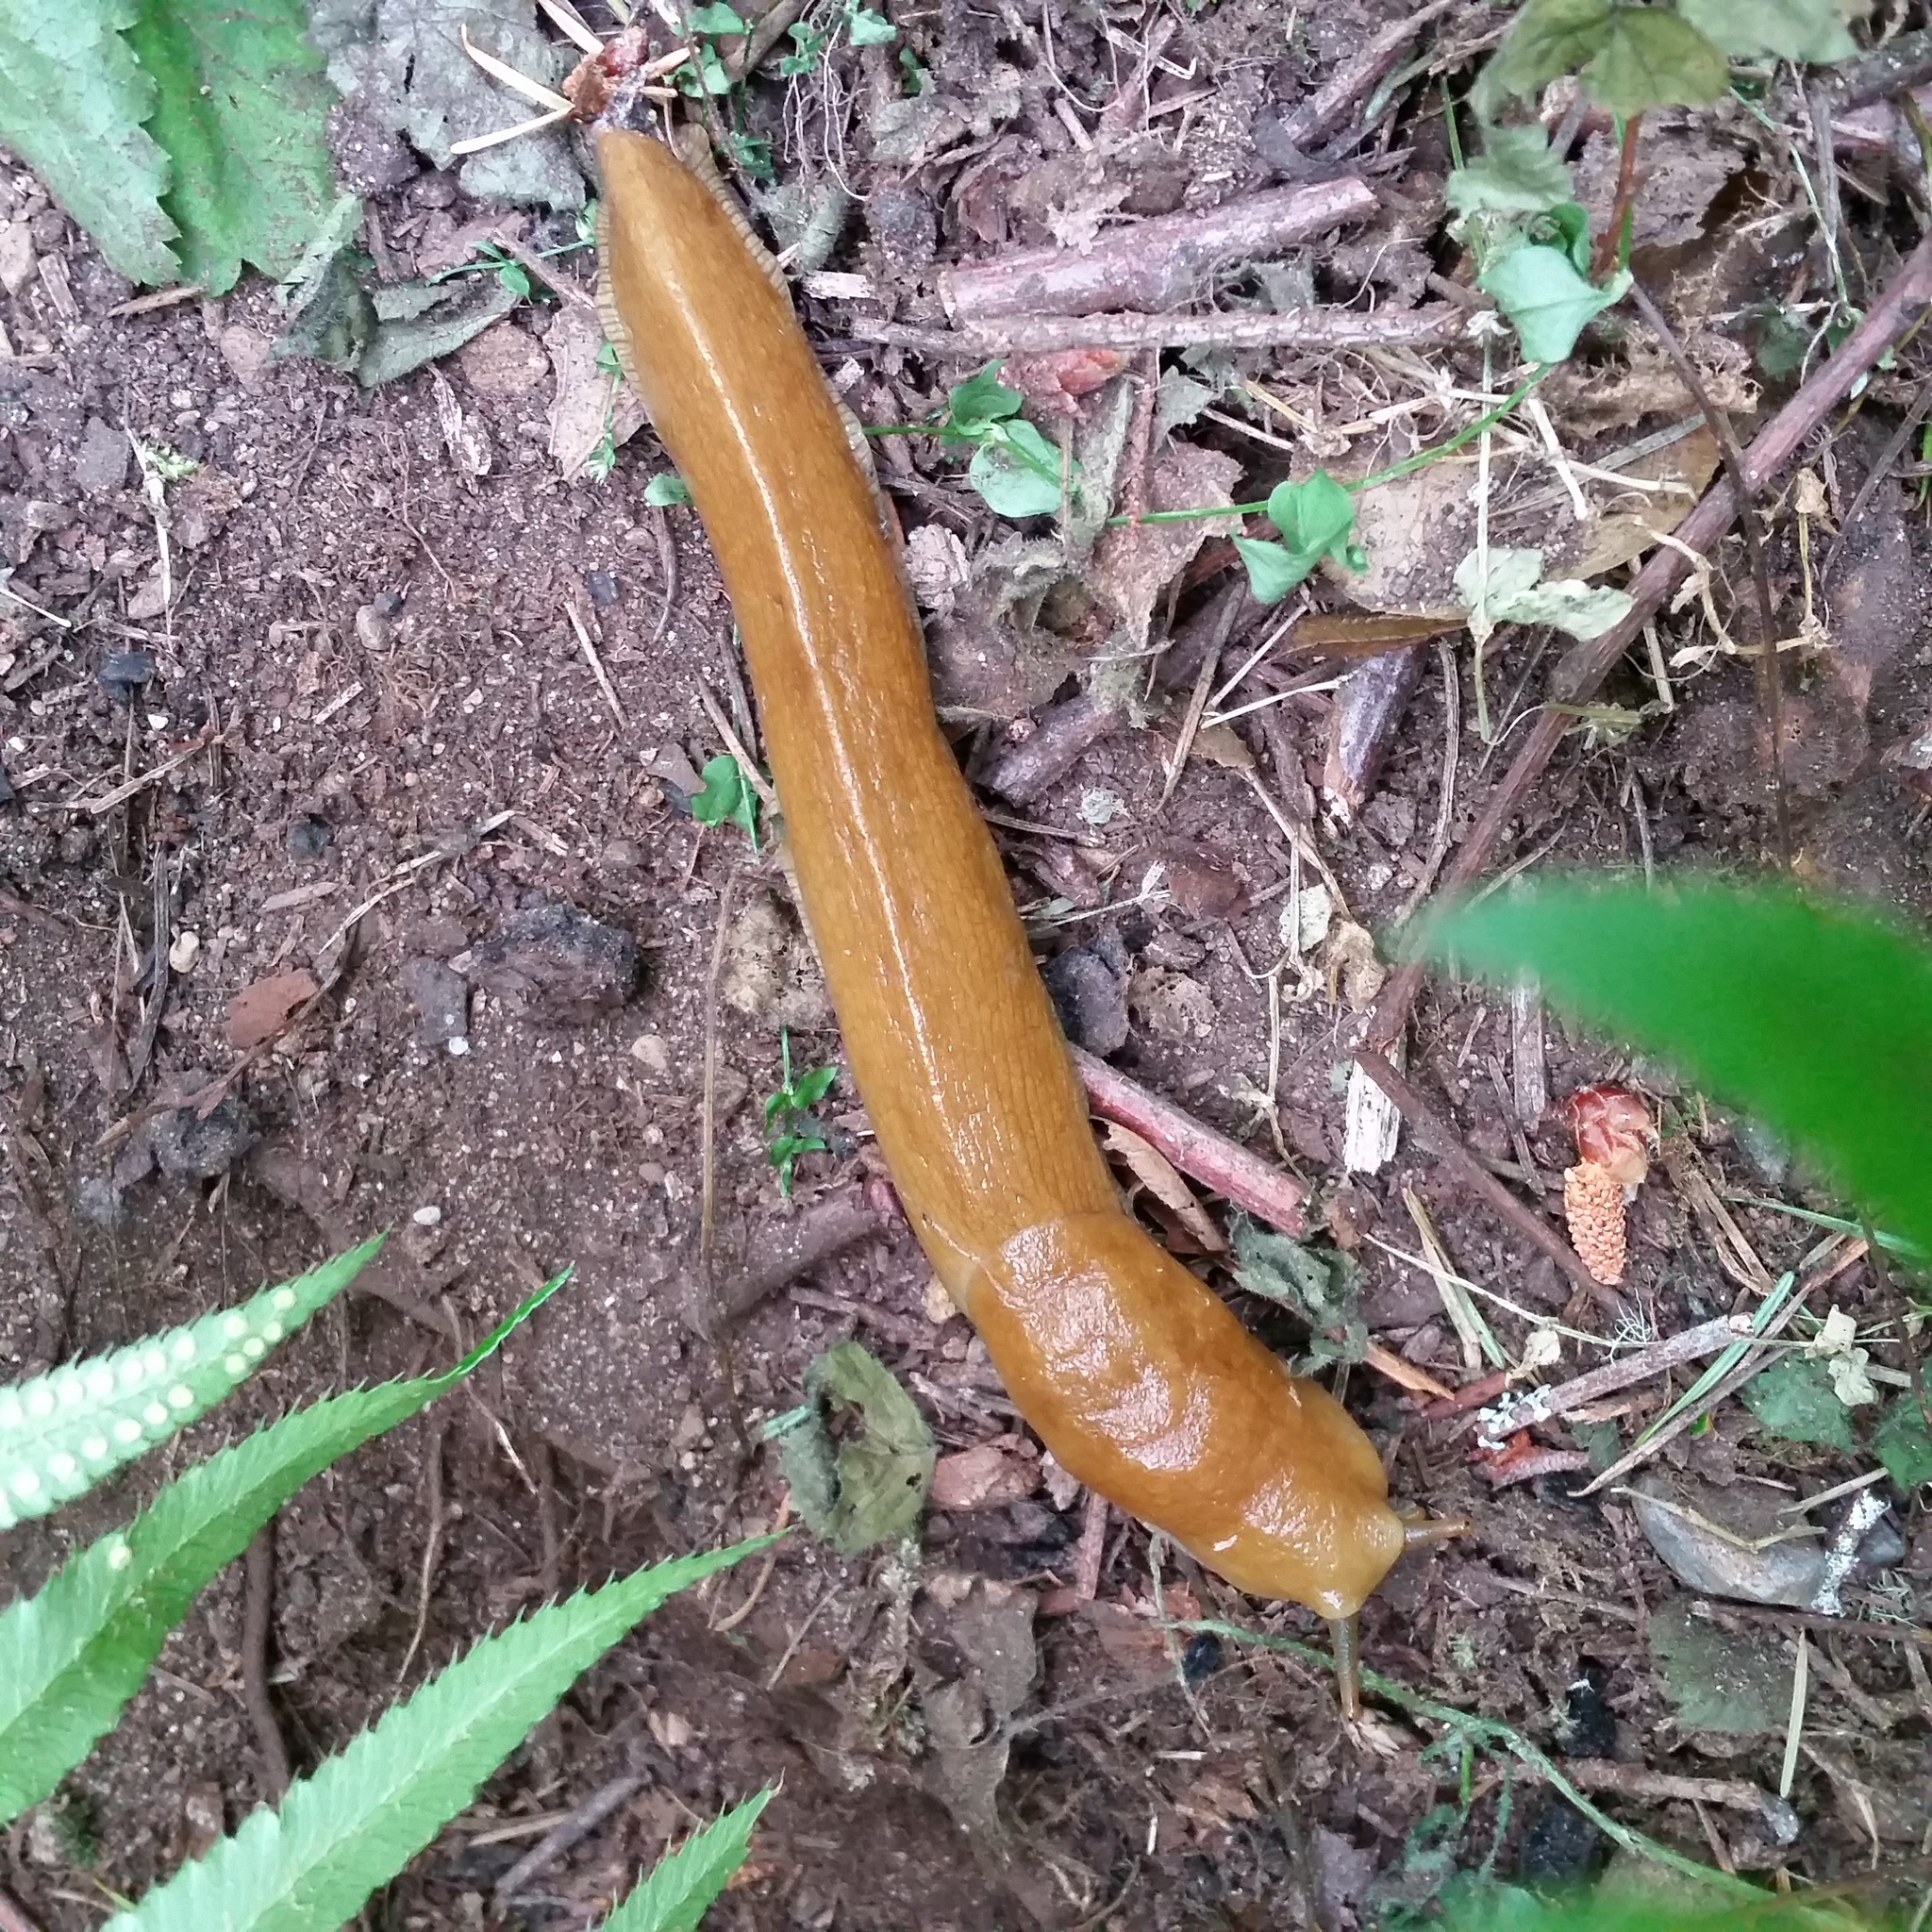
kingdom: Animalia
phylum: Mollusca
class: Gastropoda
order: Stylommatophora
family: Ariolimacidae
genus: Ariolimax
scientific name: Ariolimax columbianus
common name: Pacific banana slug
